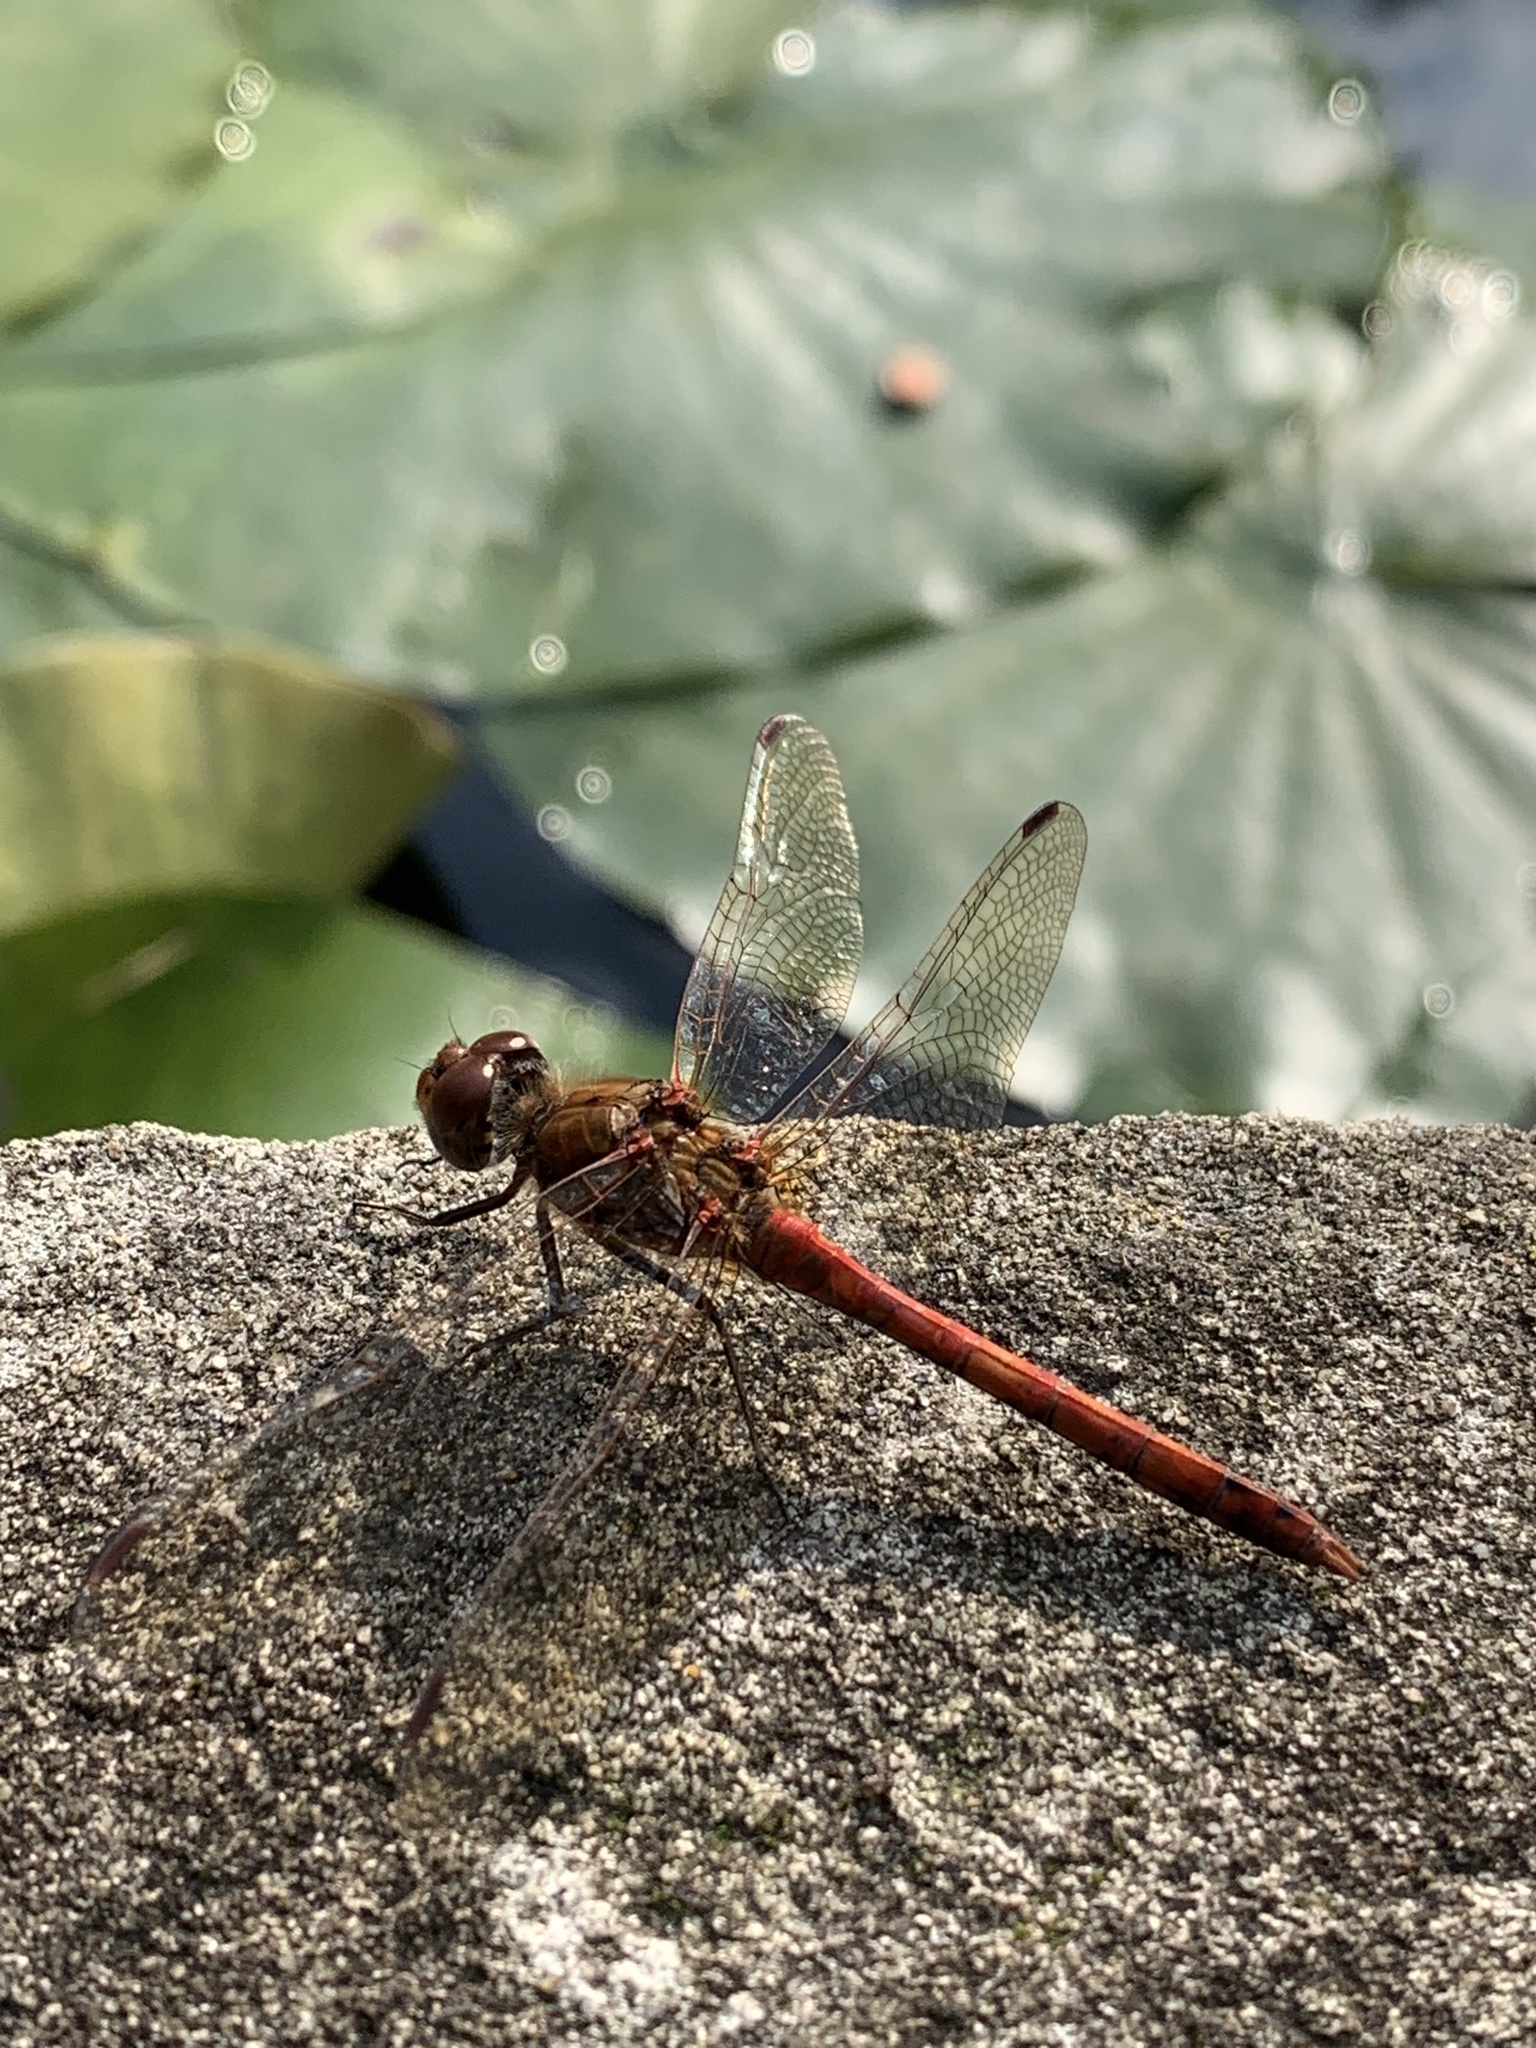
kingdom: Animalia
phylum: Arthropoda
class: Insecta
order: Odonata
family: Libellulidae
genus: Sympetrum
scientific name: Sympetrum striolatum
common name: Common darter
